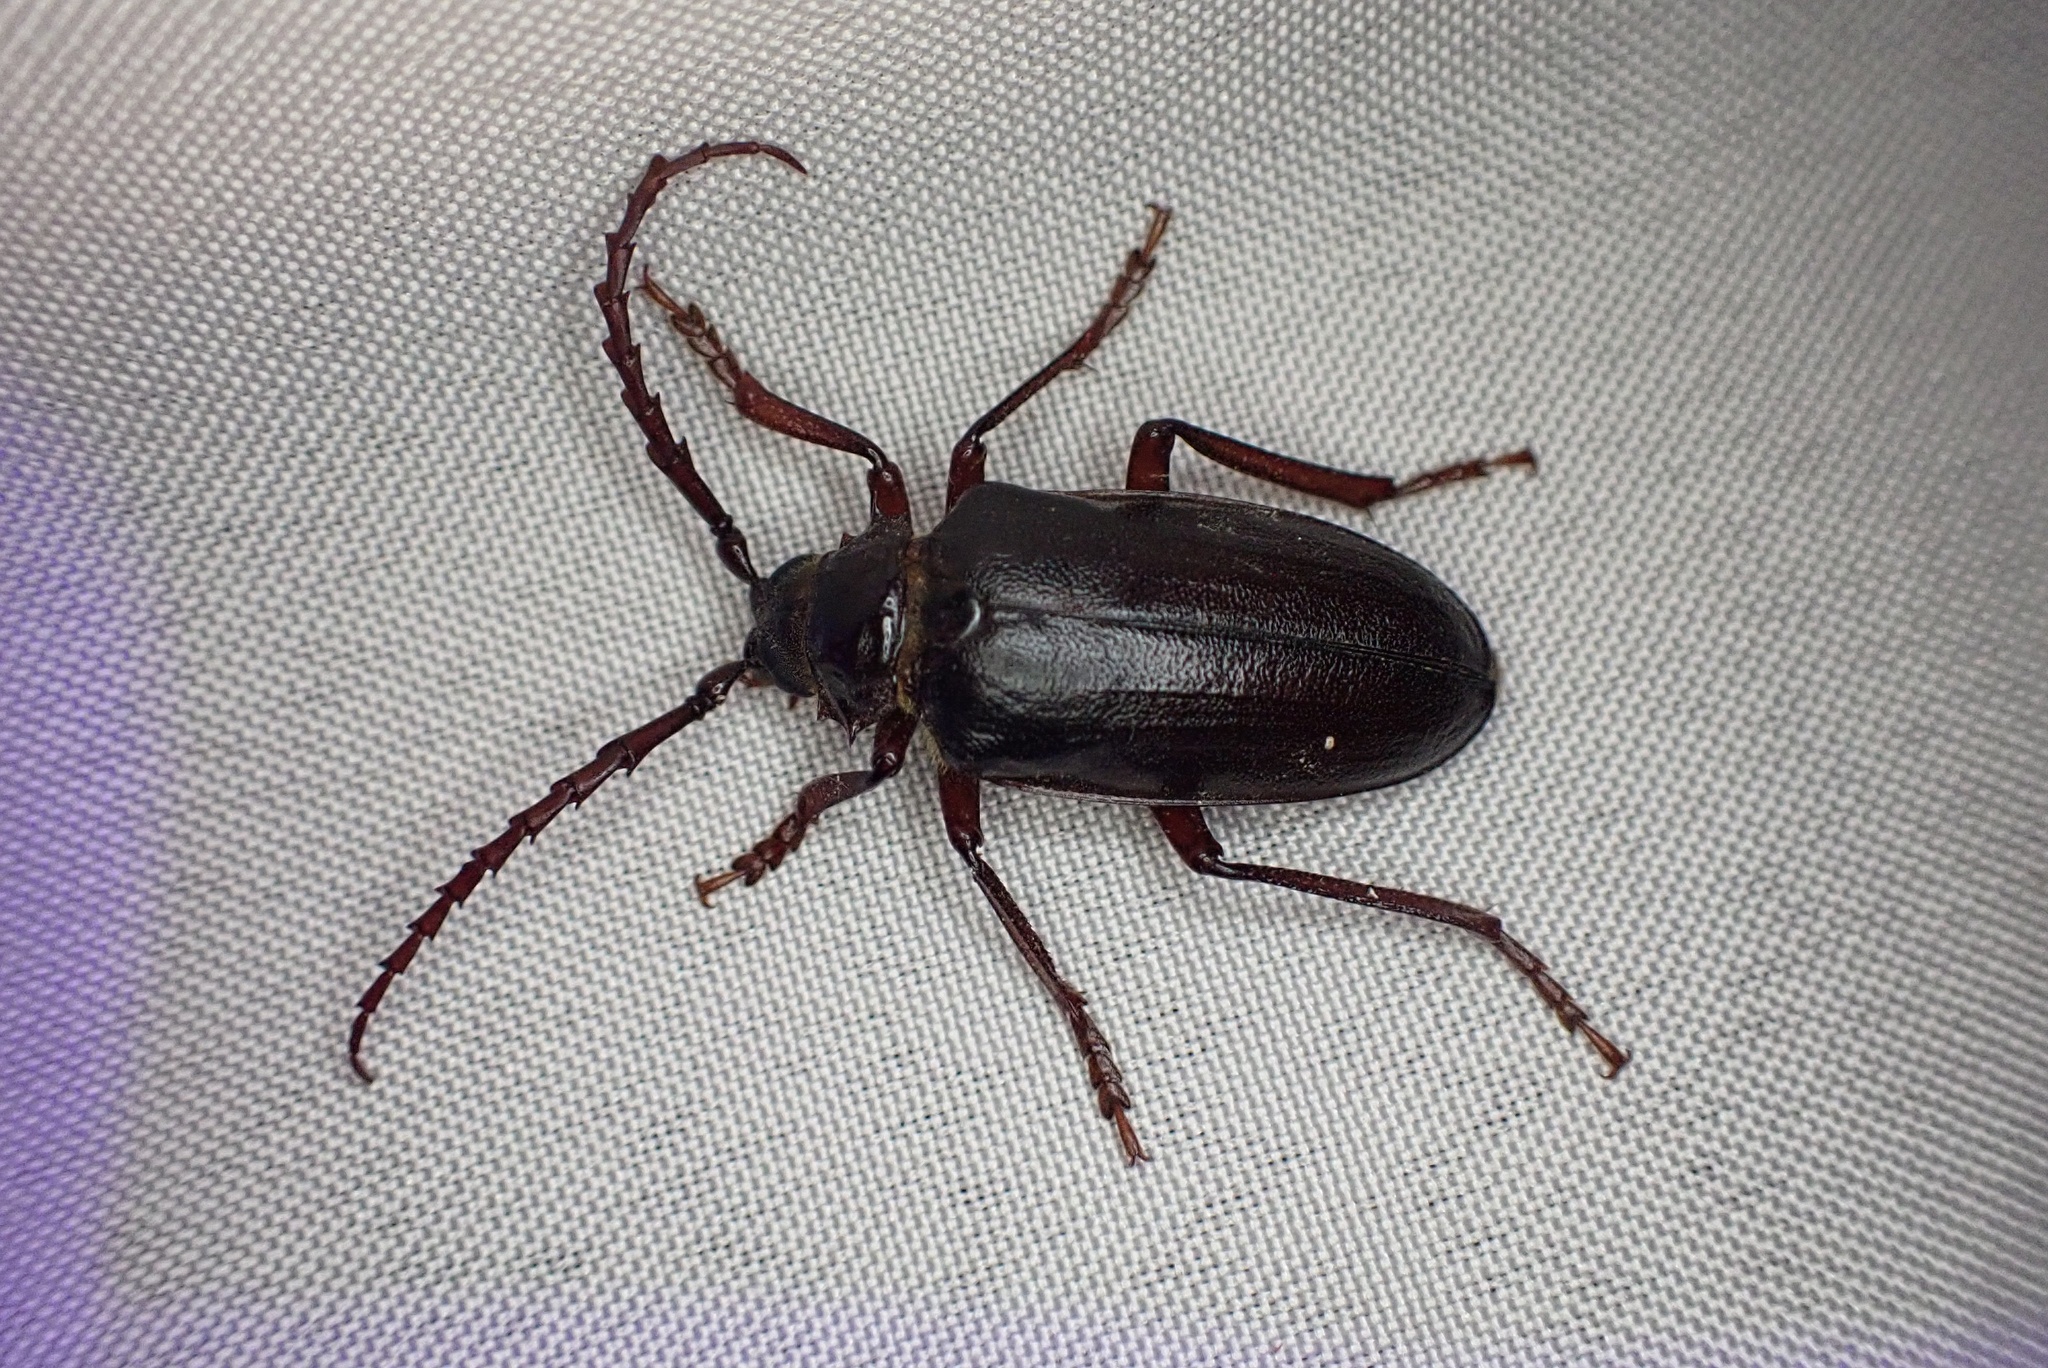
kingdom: Animalia
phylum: Arthropoda
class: Insecta
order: Coleoptera
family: Cerambycidae
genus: Prionus
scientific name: Prionus californicus
